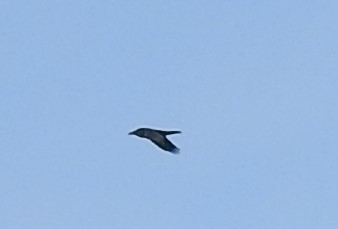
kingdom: Animalia
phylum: Chordata
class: Aves
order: Passeriformes
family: Corvidae
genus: Corvus
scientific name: Corvus corax
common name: Common raven
